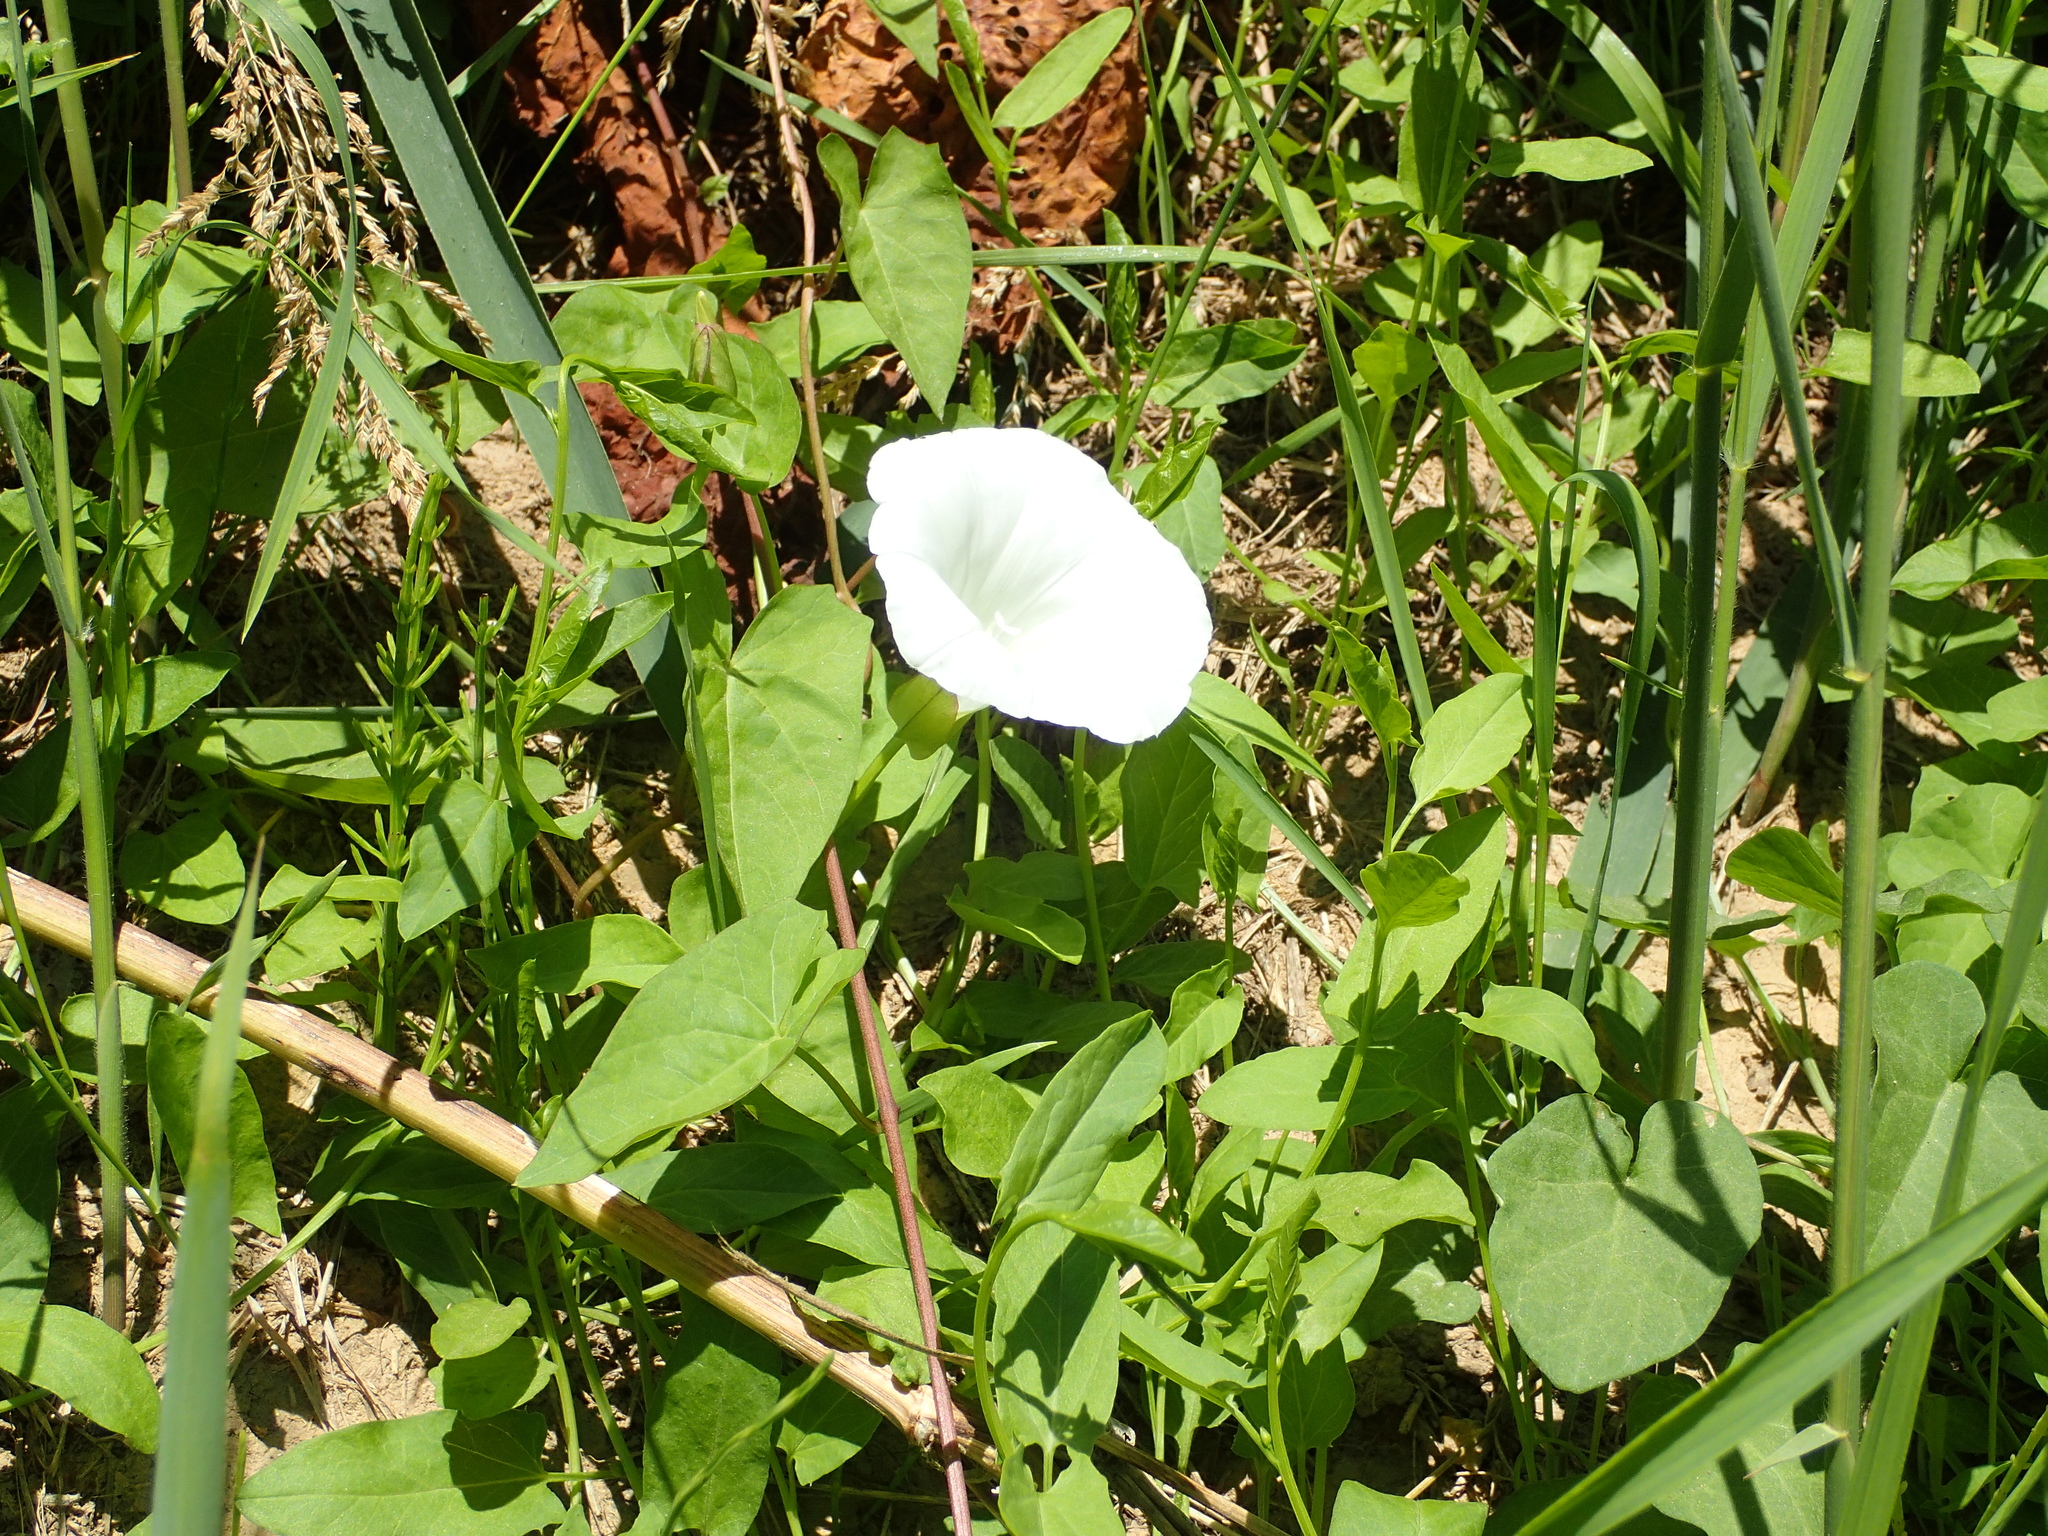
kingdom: Plantae
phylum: Tracheophyta
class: Magnoliopsida
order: Solanales
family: Convolvulaceae
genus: Calystegia
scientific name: Calystegia sepium
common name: Hedge bindweed
